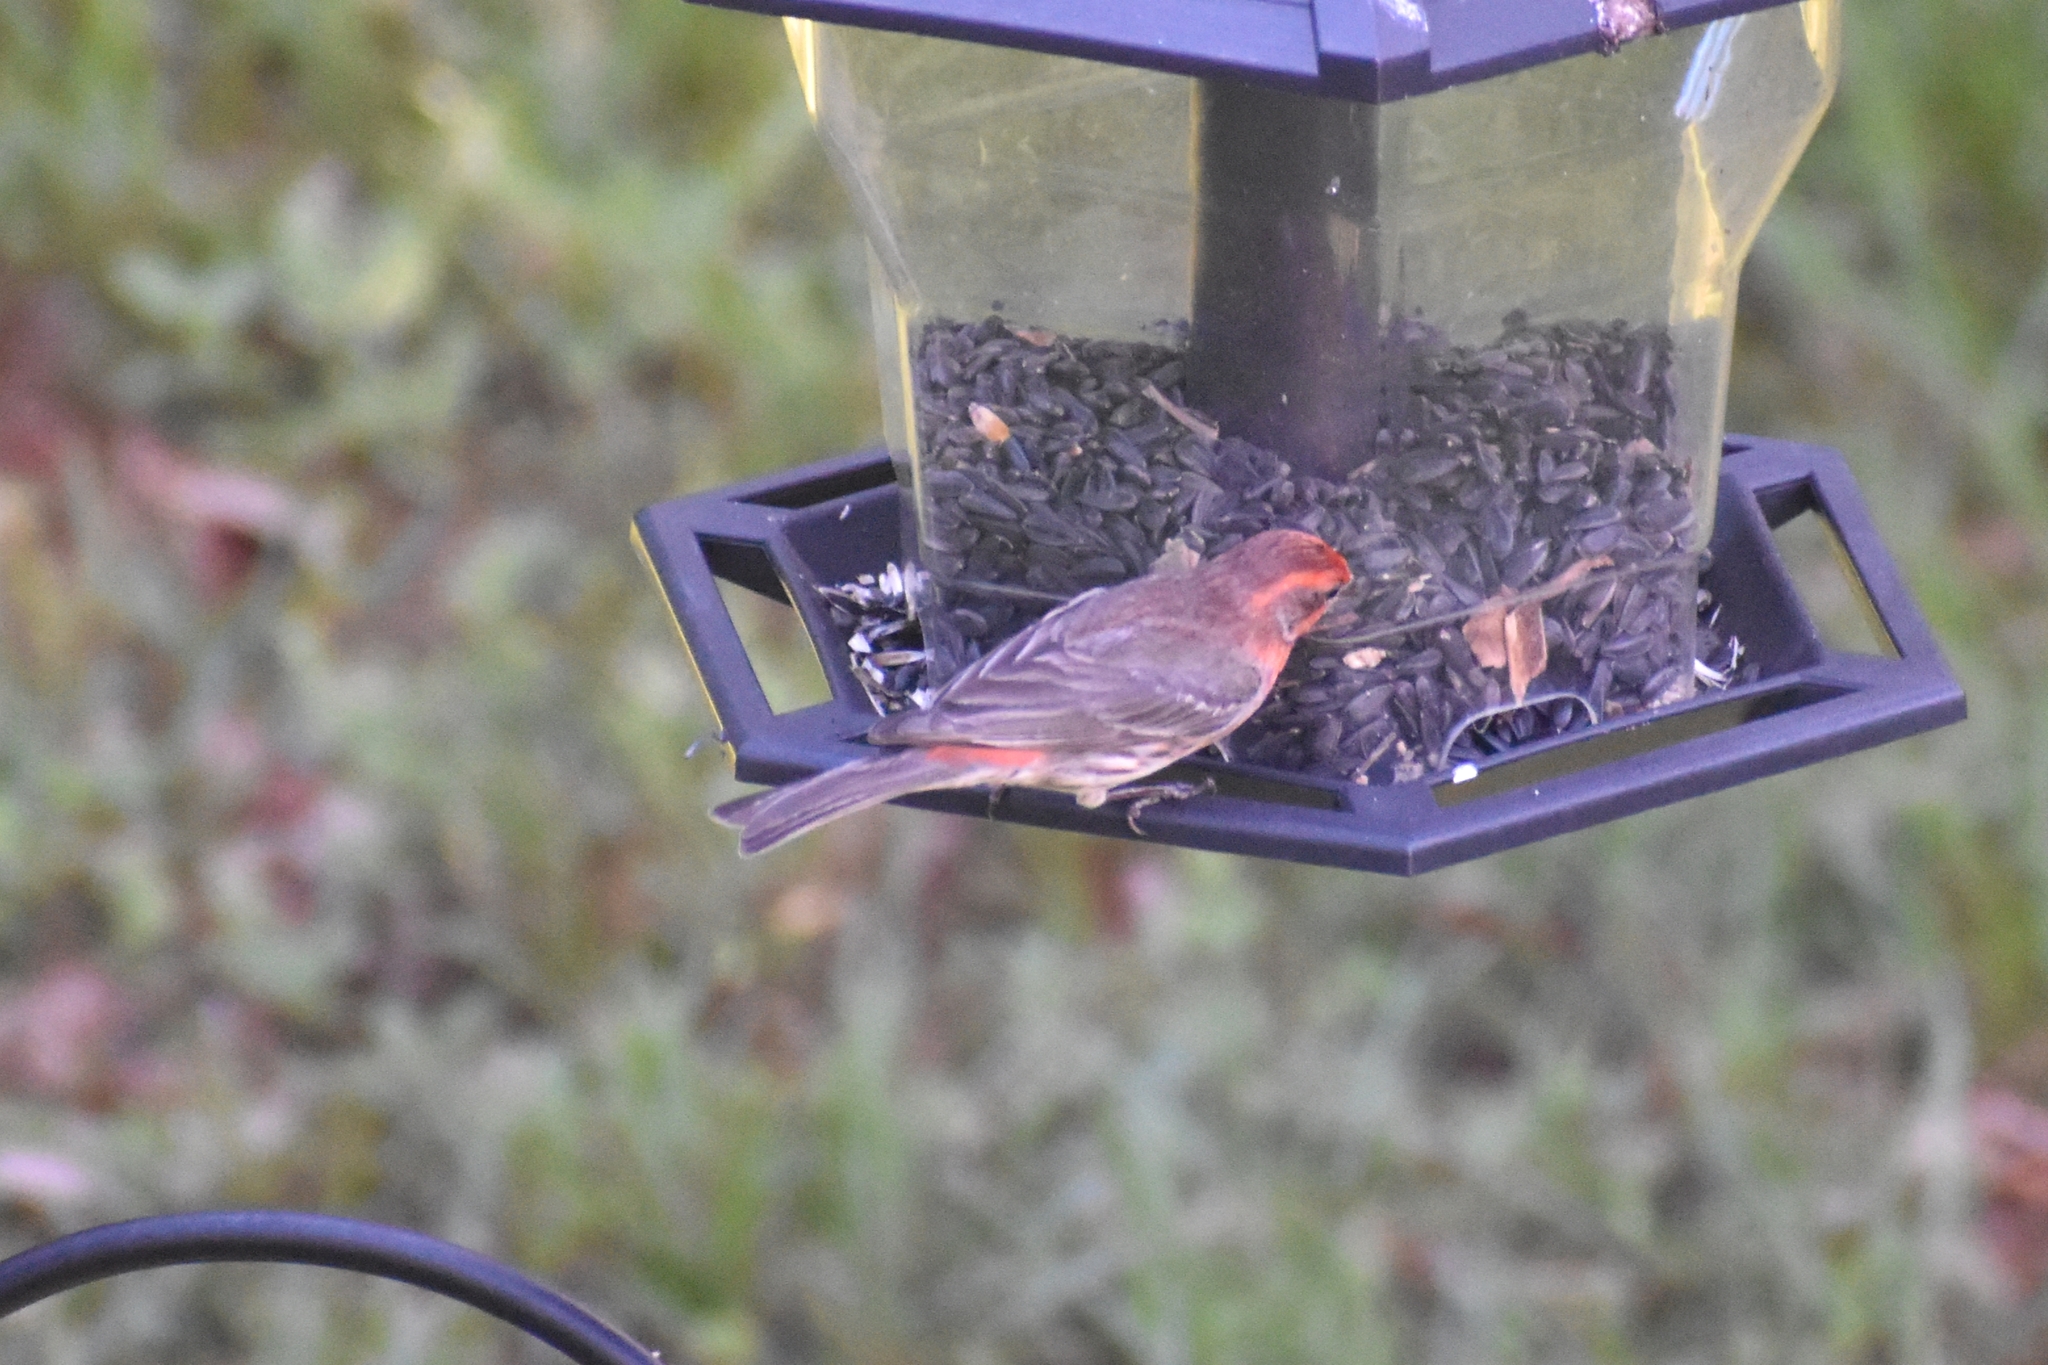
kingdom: Animalia
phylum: Chordata
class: Aves
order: Passeriformes
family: Fringillidae
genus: Haemorhous
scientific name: Haemorhous mexicanus
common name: House finch
